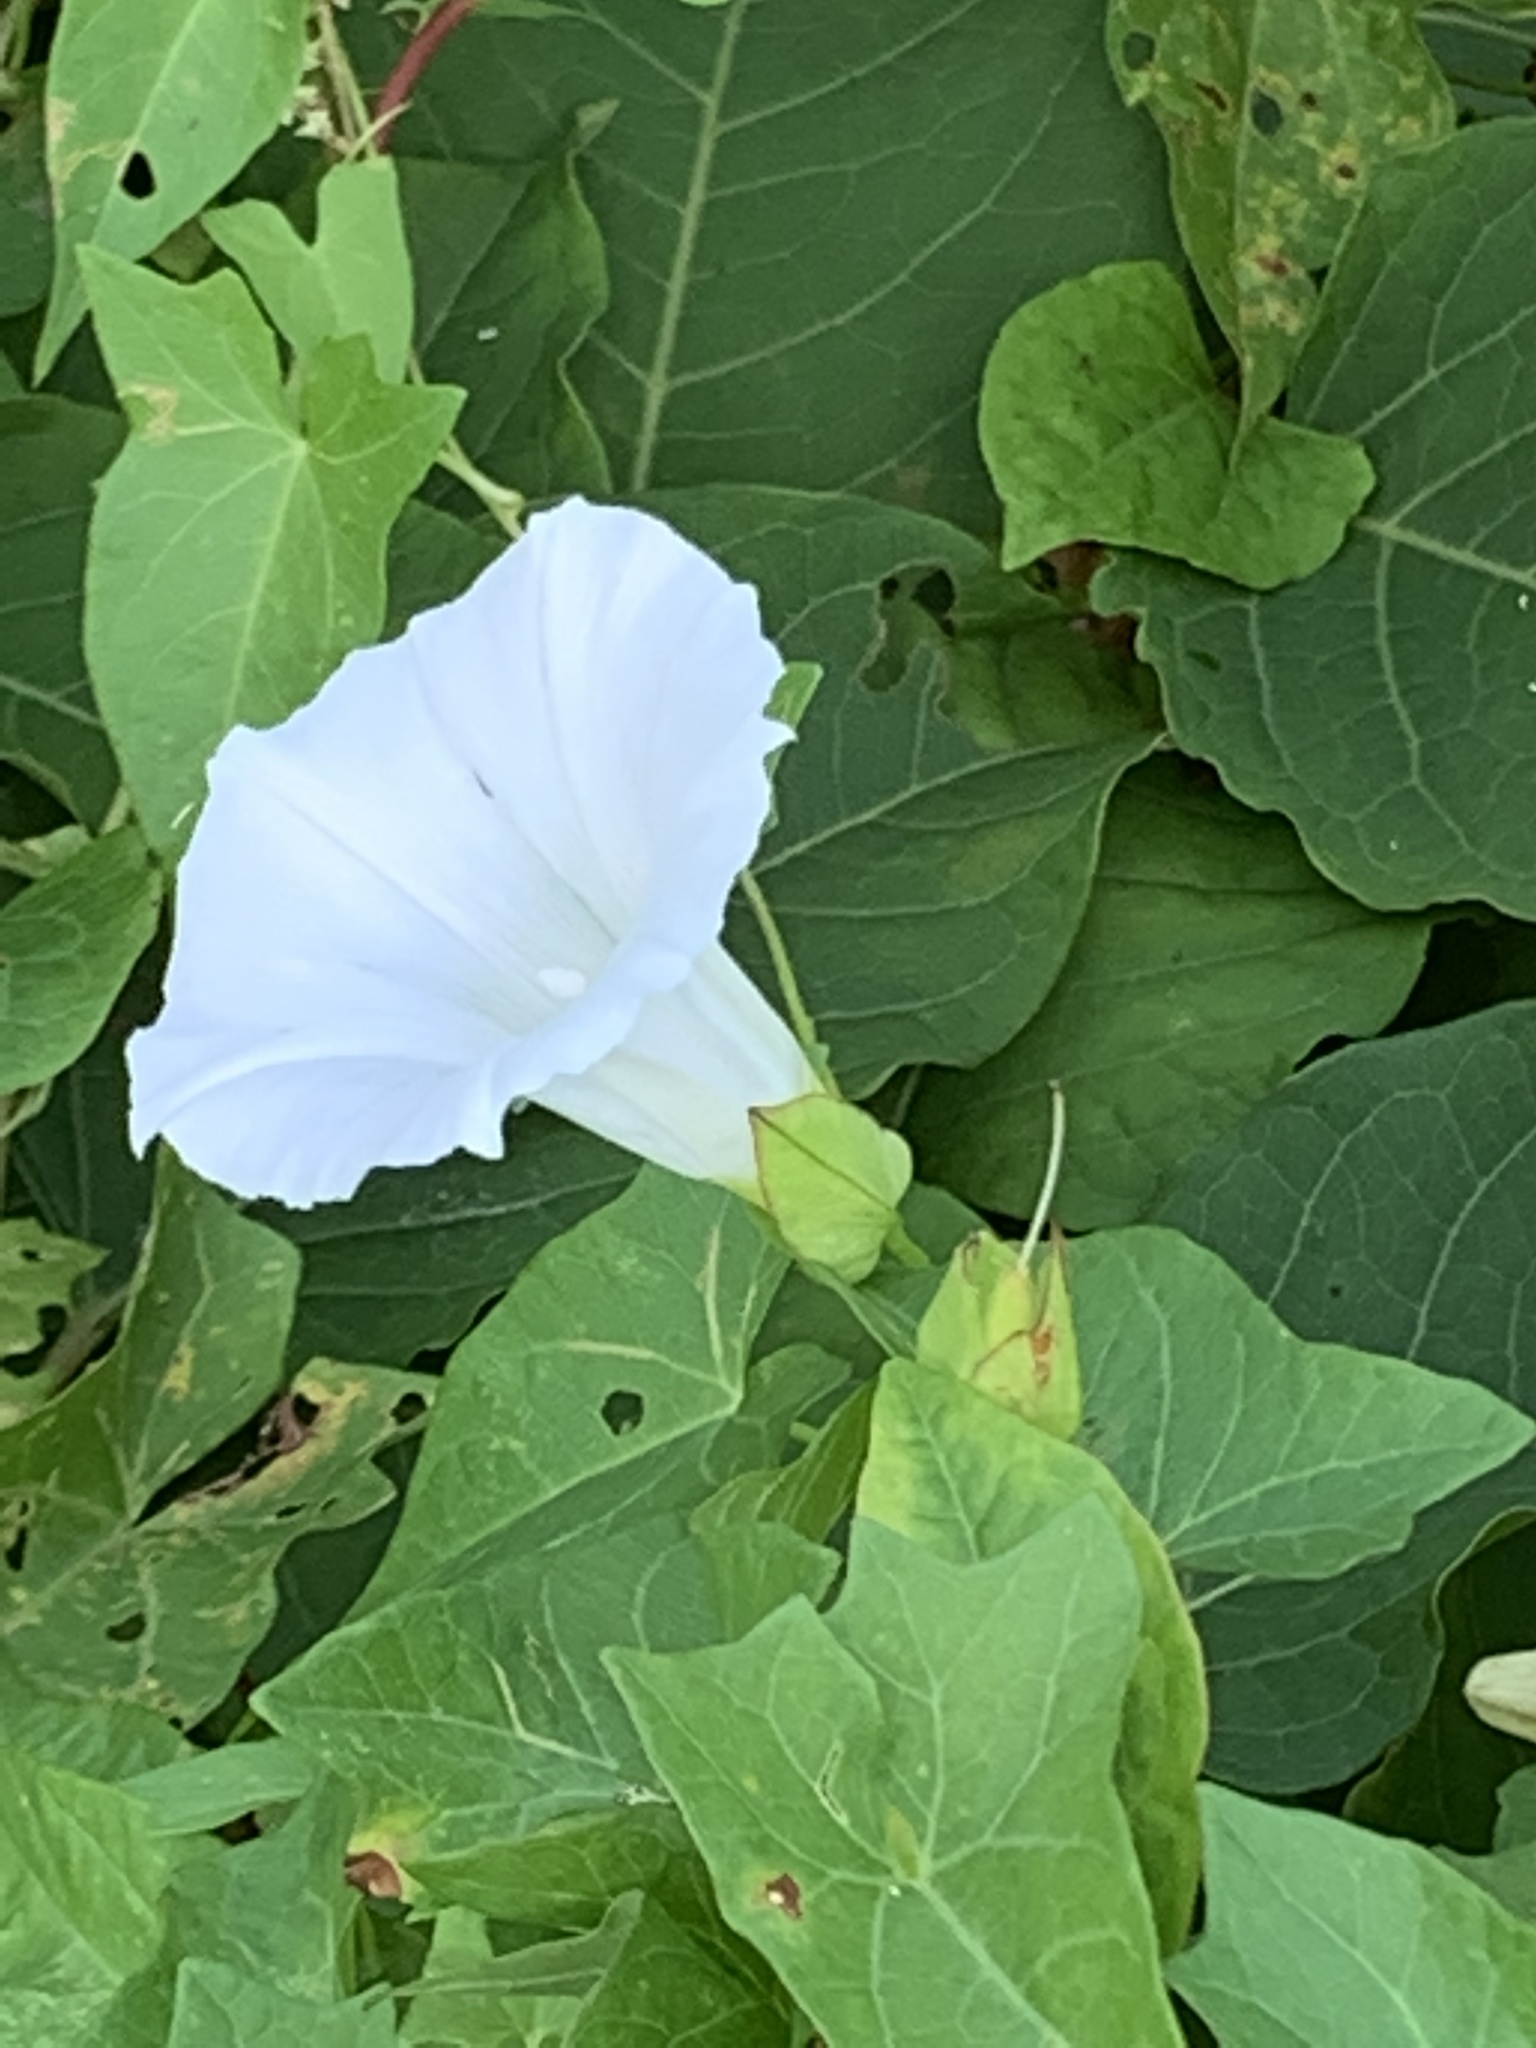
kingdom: Plantae
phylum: Tracheophyta
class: Magnoliopsida
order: Solanales
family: Convolvulaceae
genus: Calystegia
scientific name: Calystegia sepium
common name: Hedge bindweed
